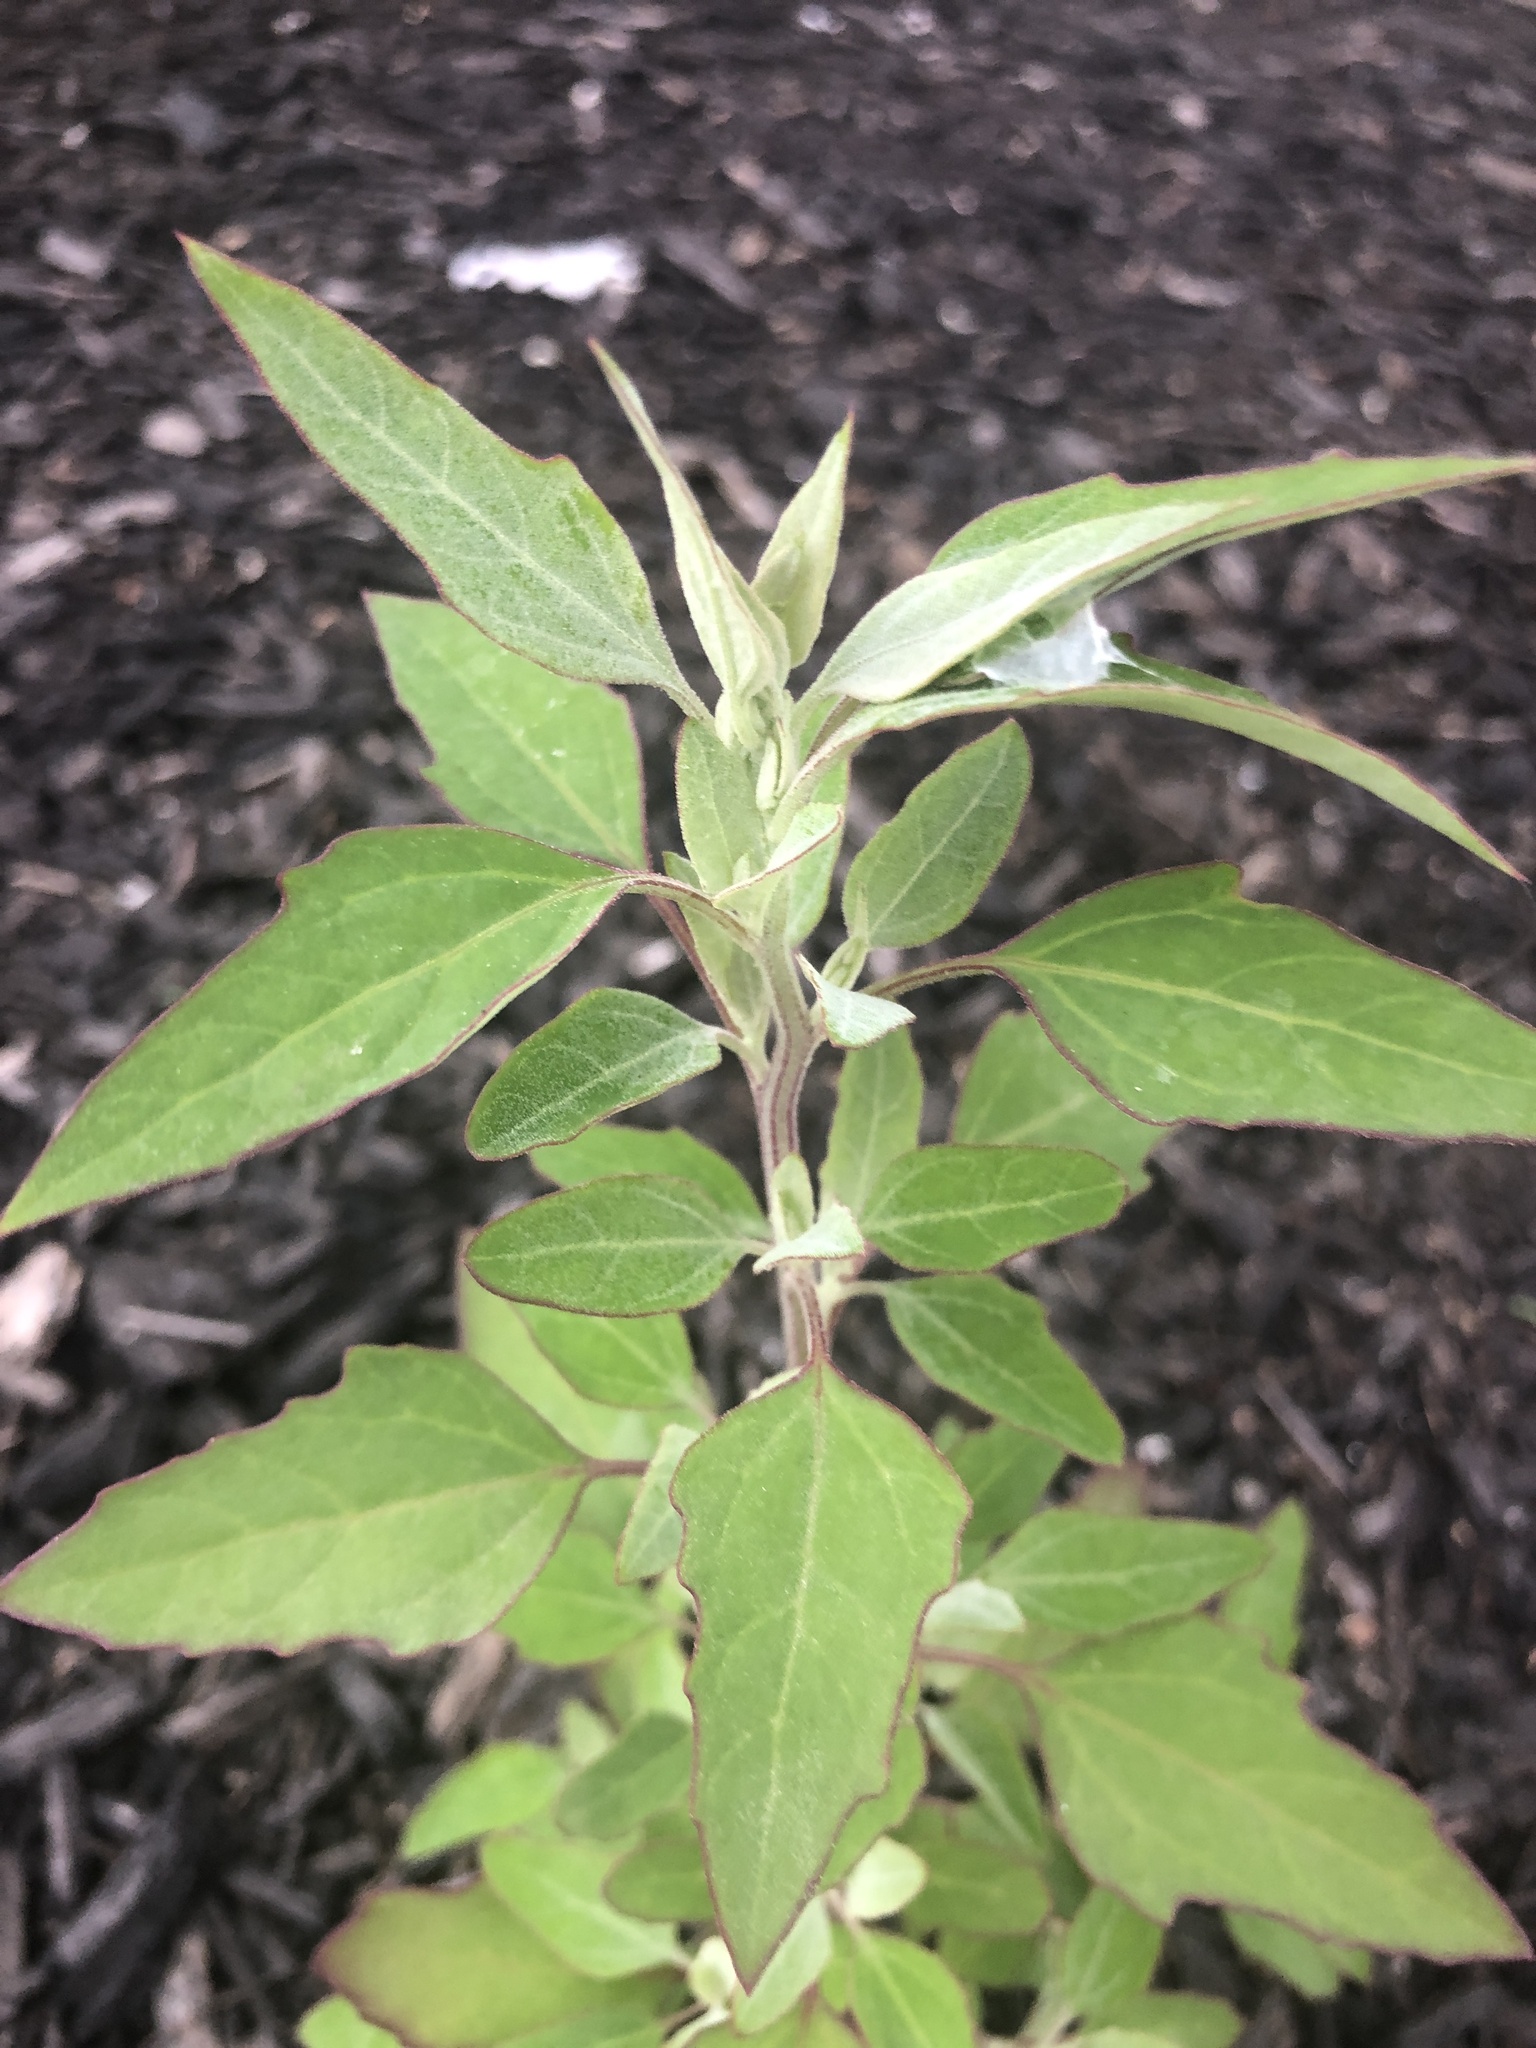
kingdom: Plantae
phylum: Tracheophyta
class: Magnoliopsida
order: Caryophyllales
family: Amaranthaceae
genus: Chenopodium
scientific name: Chenopodium album
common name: Fat-hen
